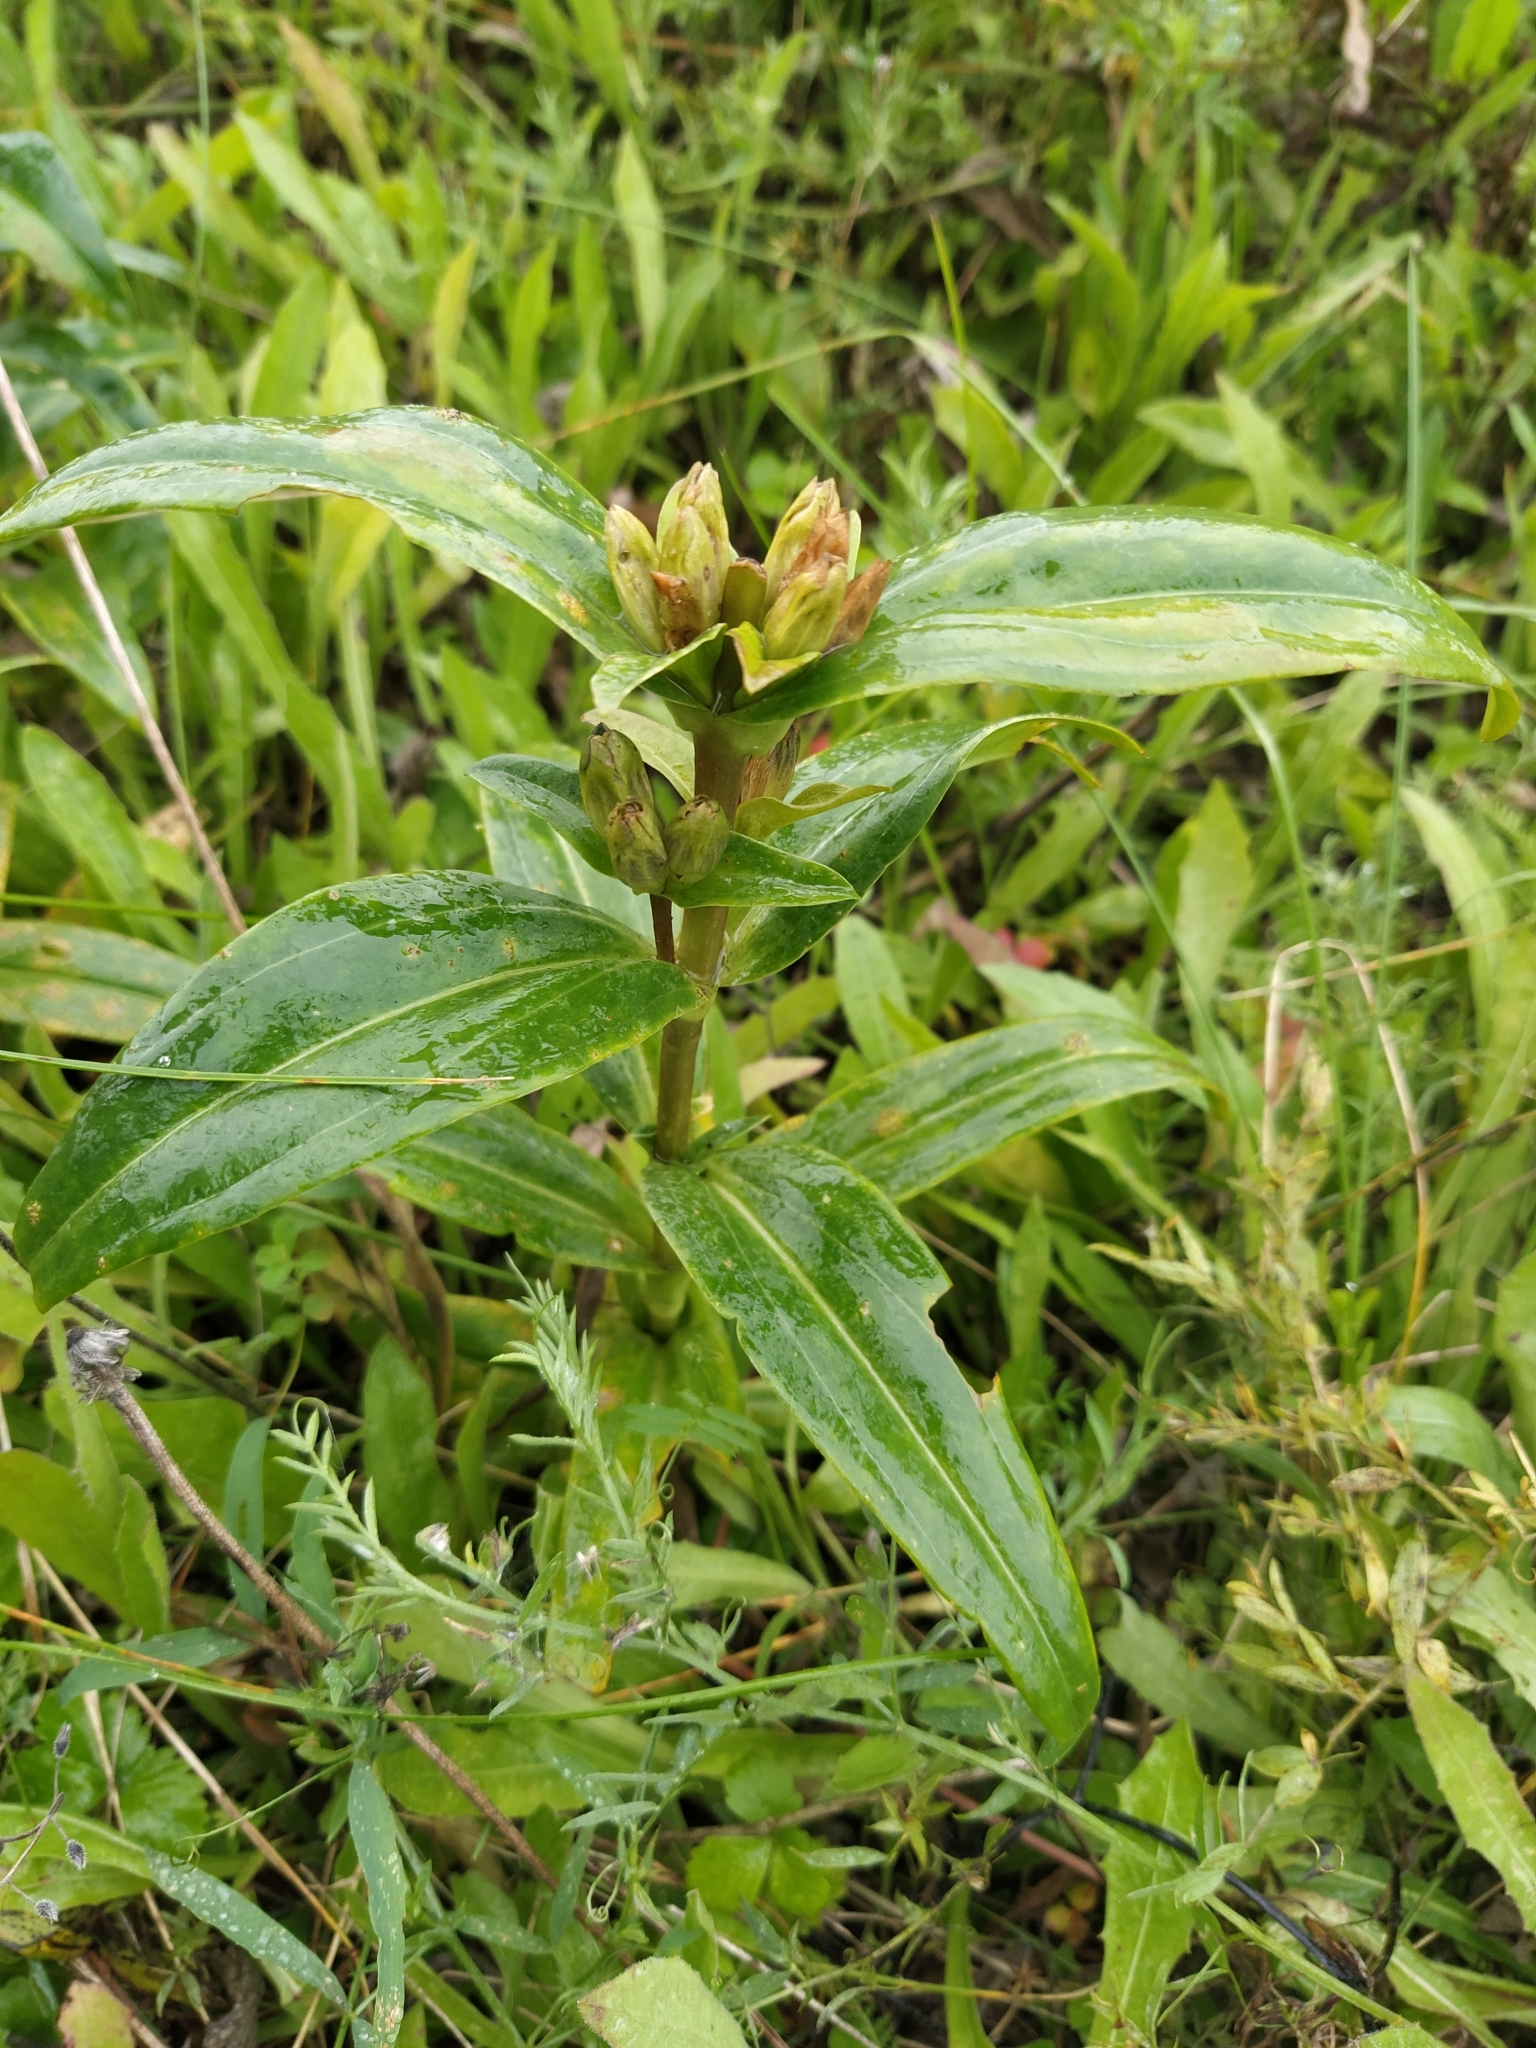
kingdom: Plantae
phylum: Tracheophyta
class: Magnoliopsida
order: Gentianales
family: Gentianaceae
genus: Gentiana
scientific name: Gentiana cruciata
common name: Cross gentian
